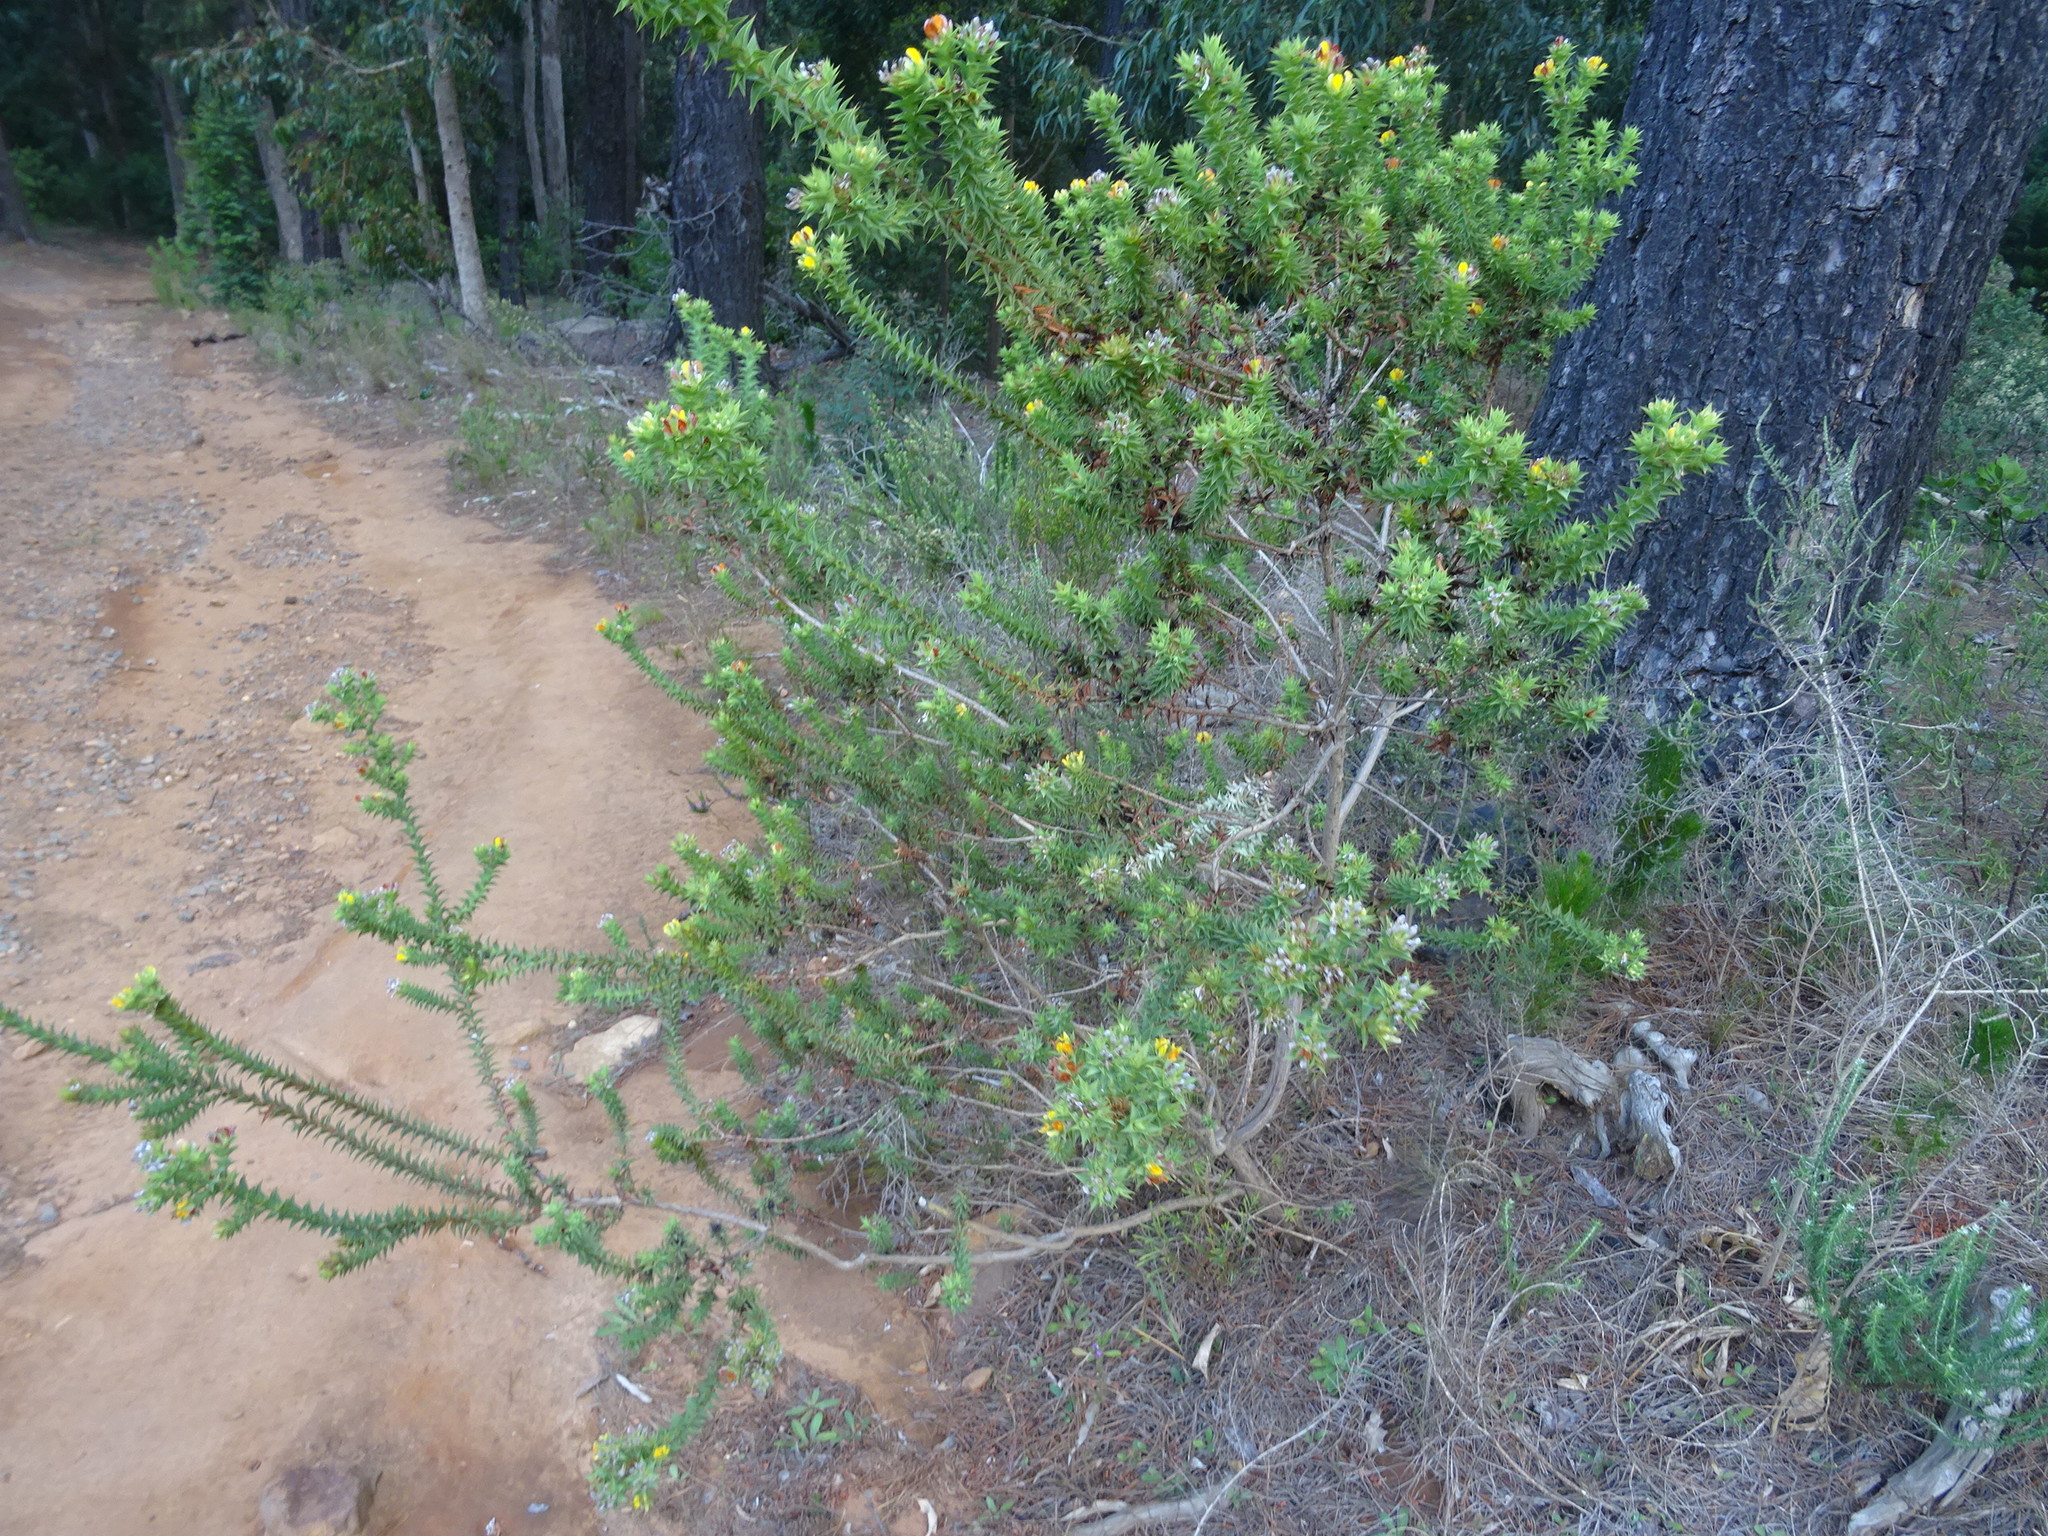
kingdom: Plantae
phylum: Tracheophyta
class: Magnoliopsida
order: Fabales
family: Fabaceae
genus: Aspalathus
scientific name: Aspalathus cordata
